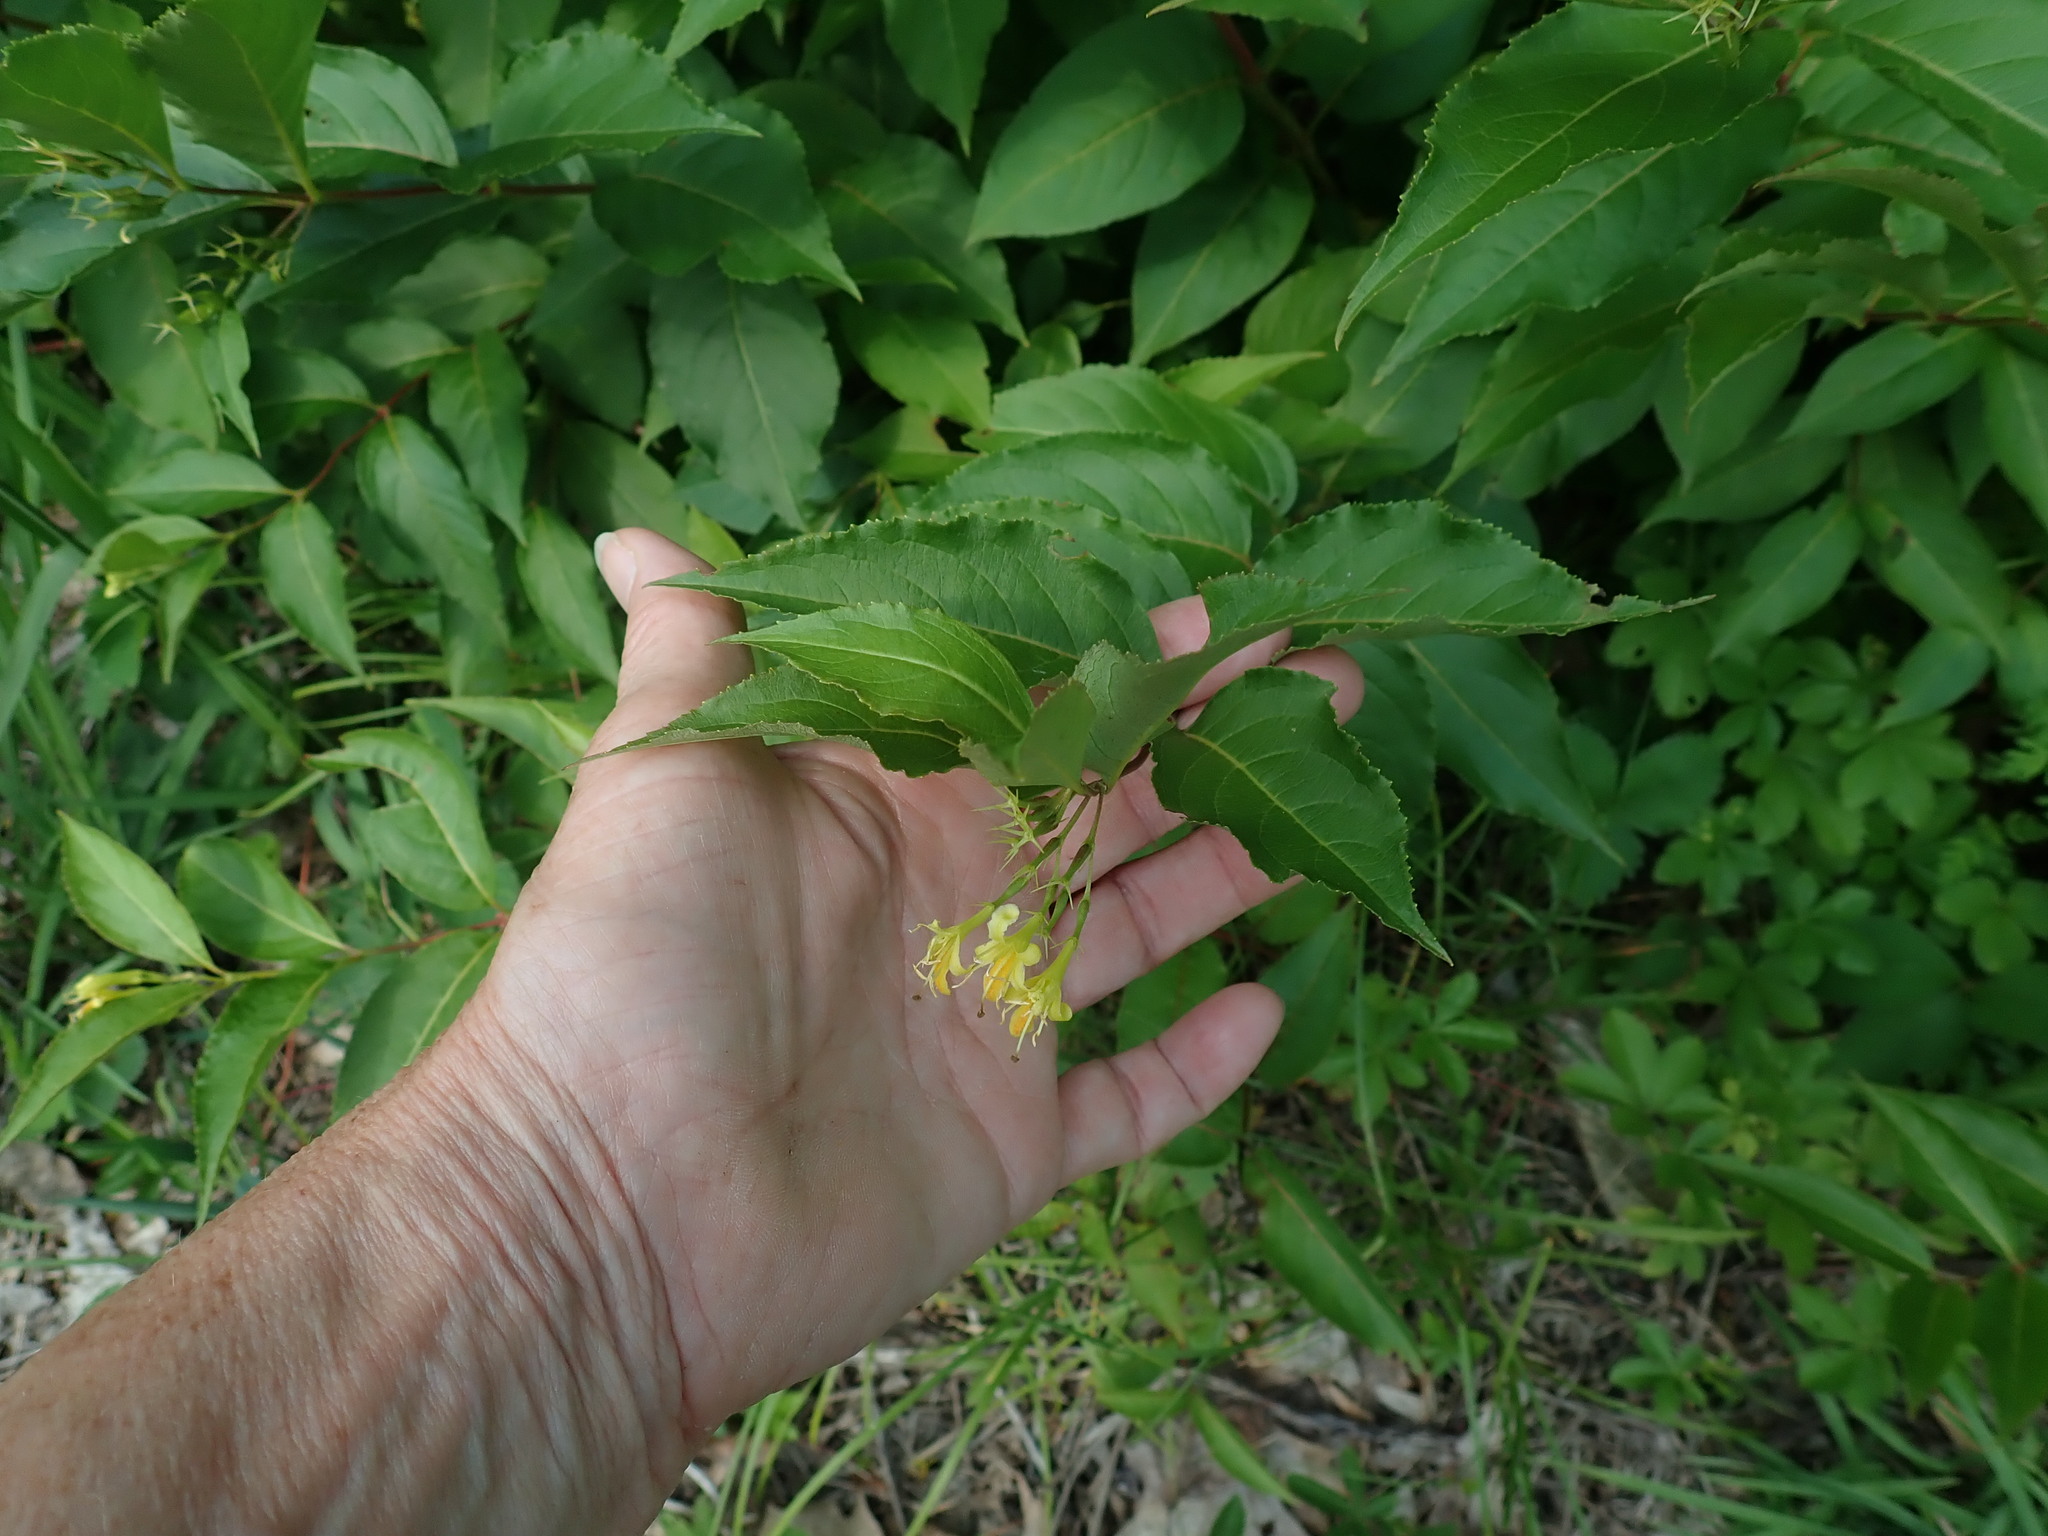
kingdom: Plantae
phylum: Tracheophyta
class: Magnoliopsida
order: Dipsacales
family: Caprifoliaceae
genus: Diervilla
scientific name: Diervilla lonicera
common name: Bush-honeysuckle
